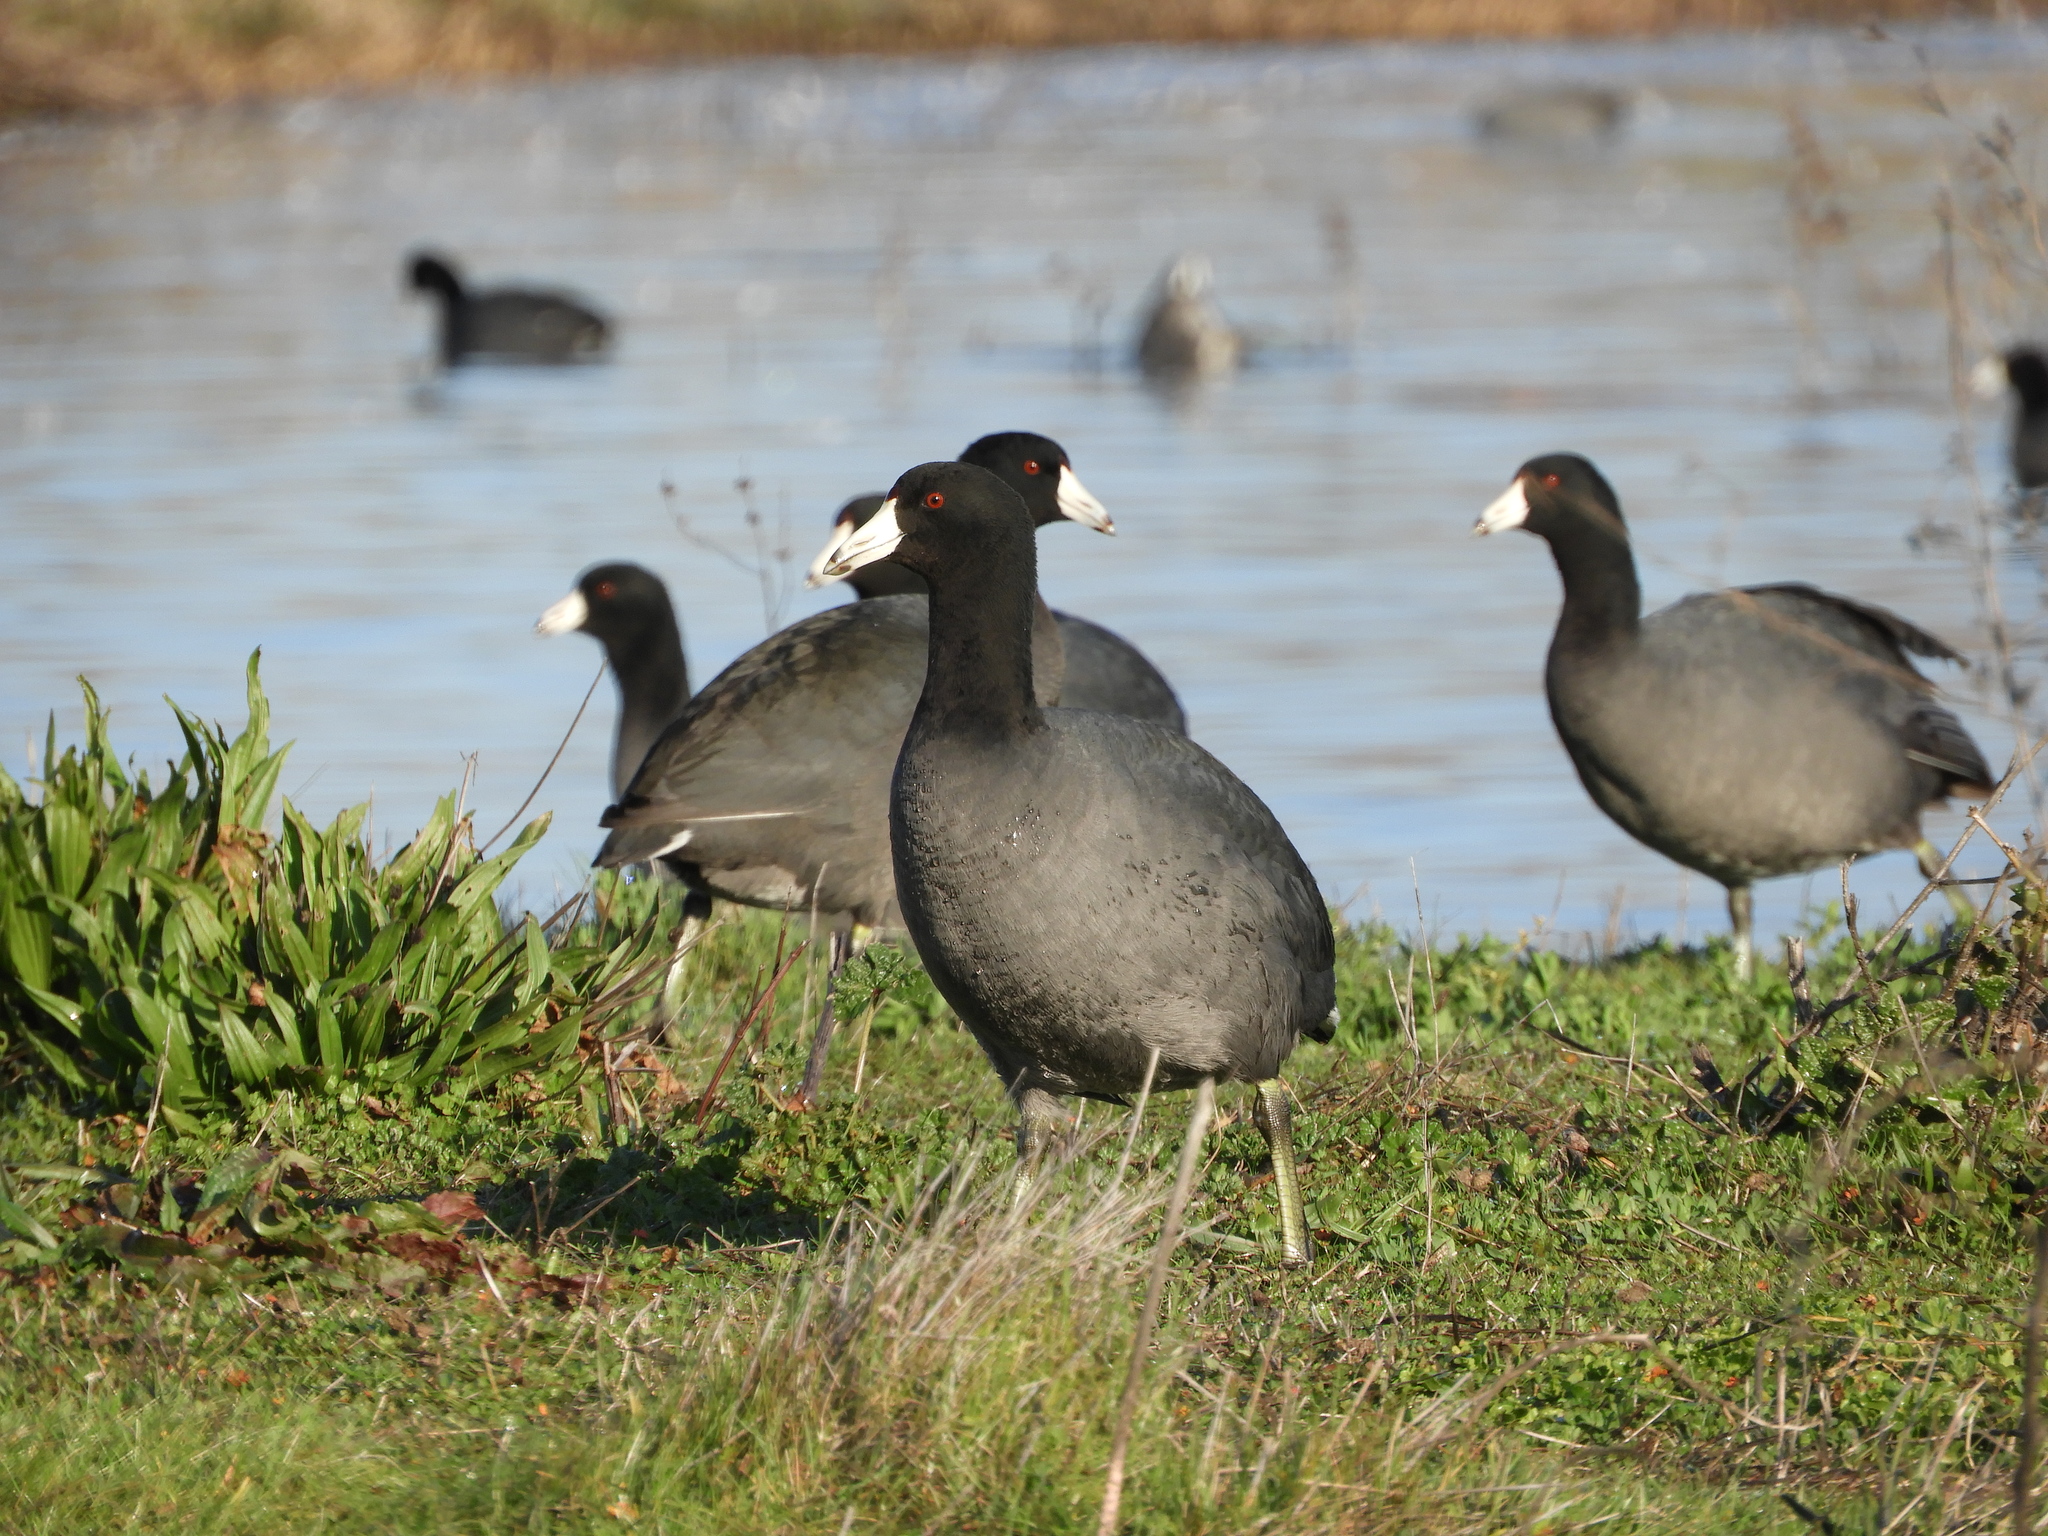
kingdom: Animalia
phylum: Chordata
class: Aves
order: Gruiformes
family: Rallidae
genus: Fulica
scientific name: Fulica americana
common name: American coot
